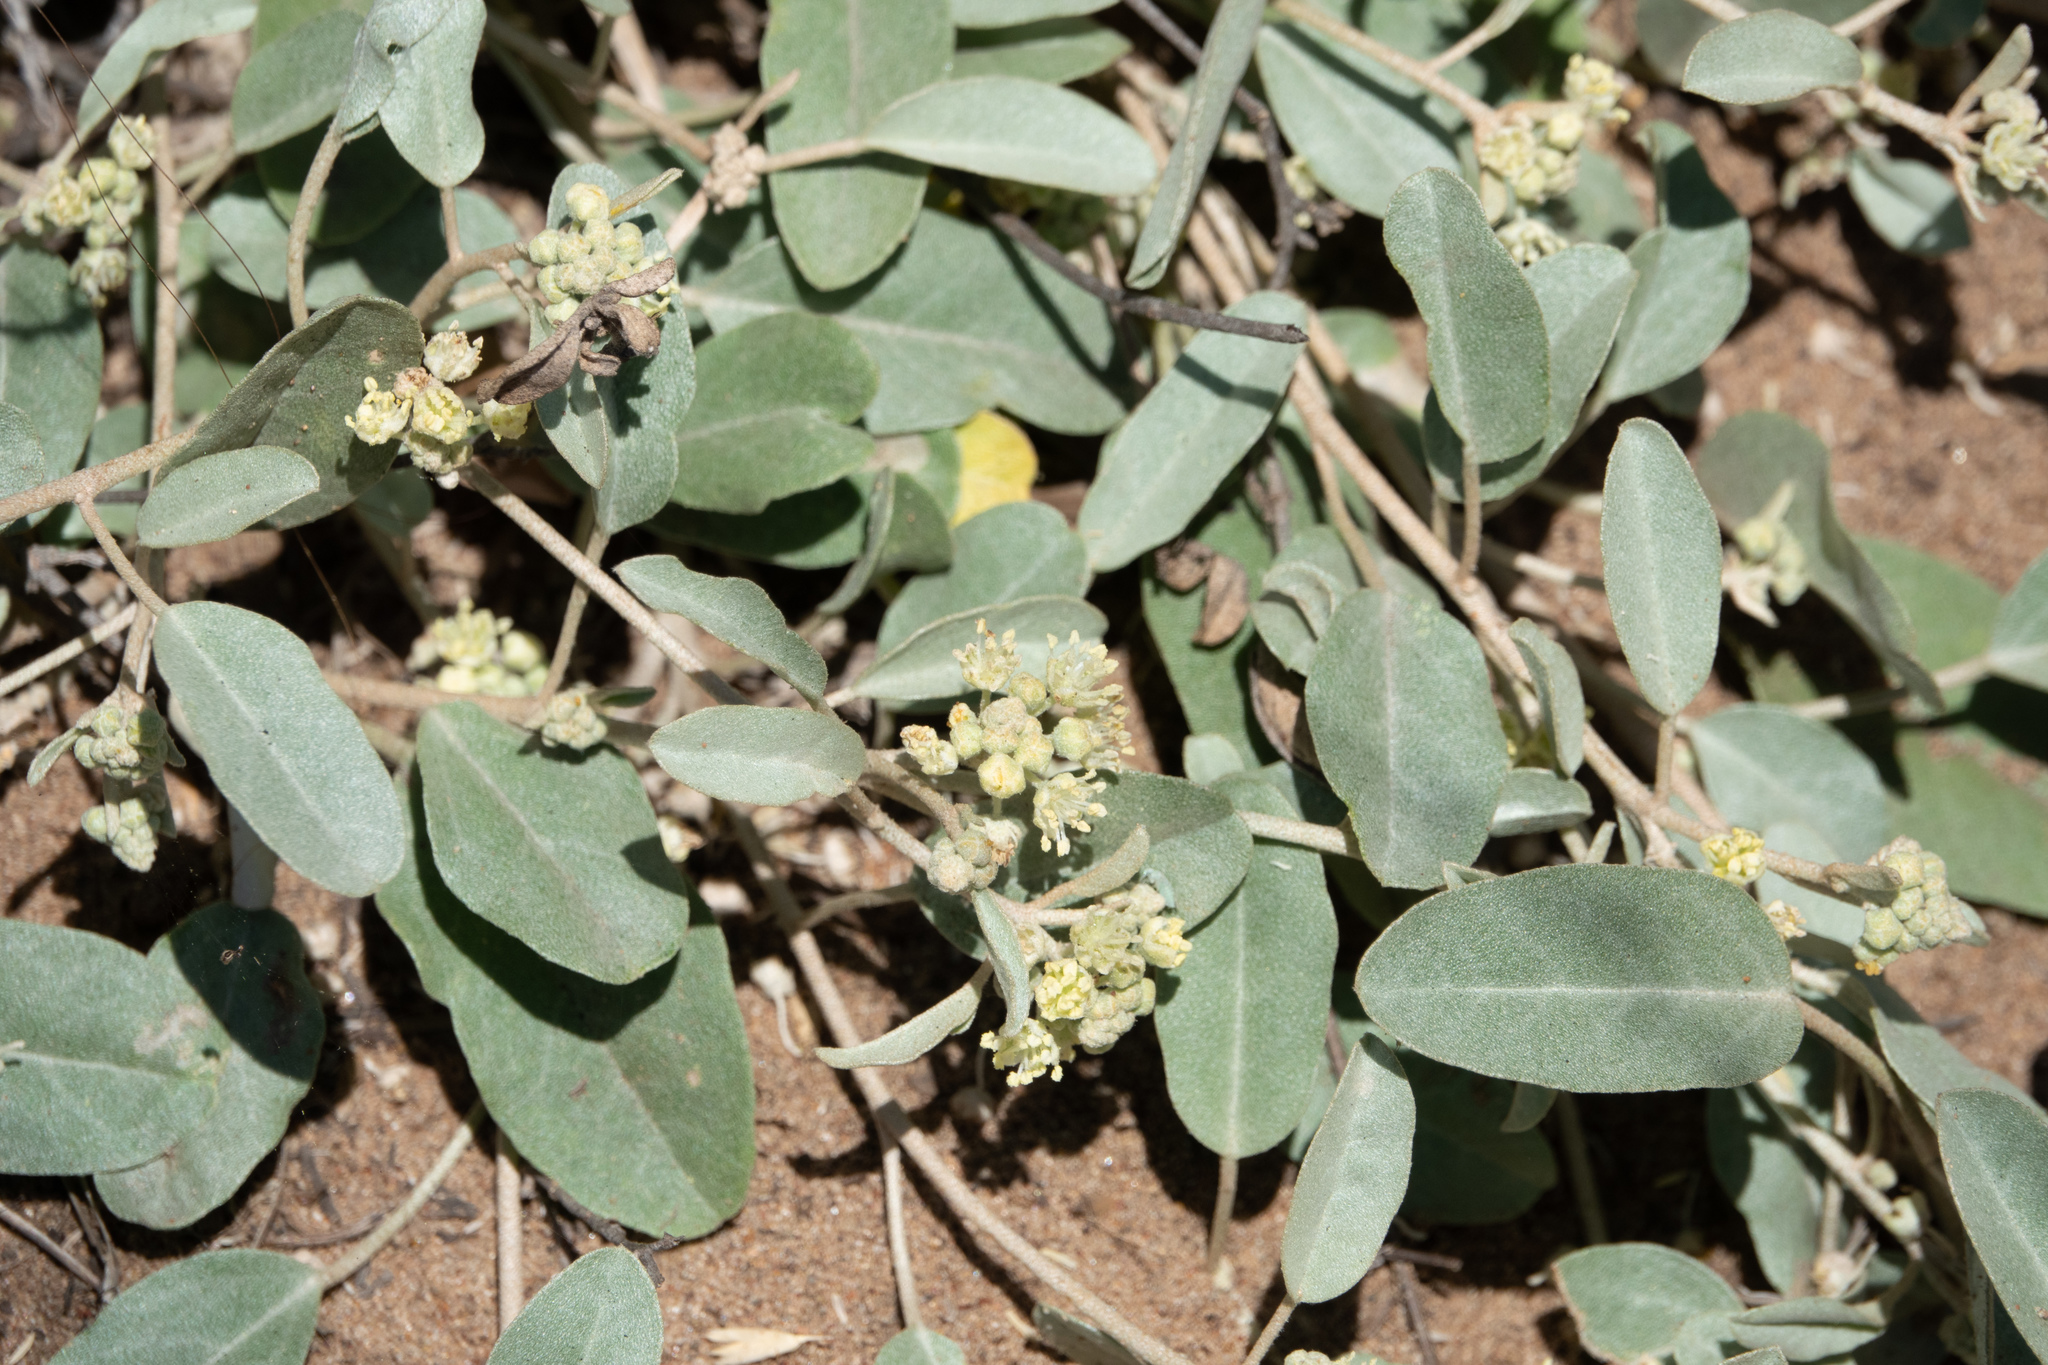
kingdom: Plantae
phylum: Tracheophyta
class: Magnoliopsida
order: Malpighiales
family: Euphorbiaceae
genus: Croton
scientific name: Croton californicus
